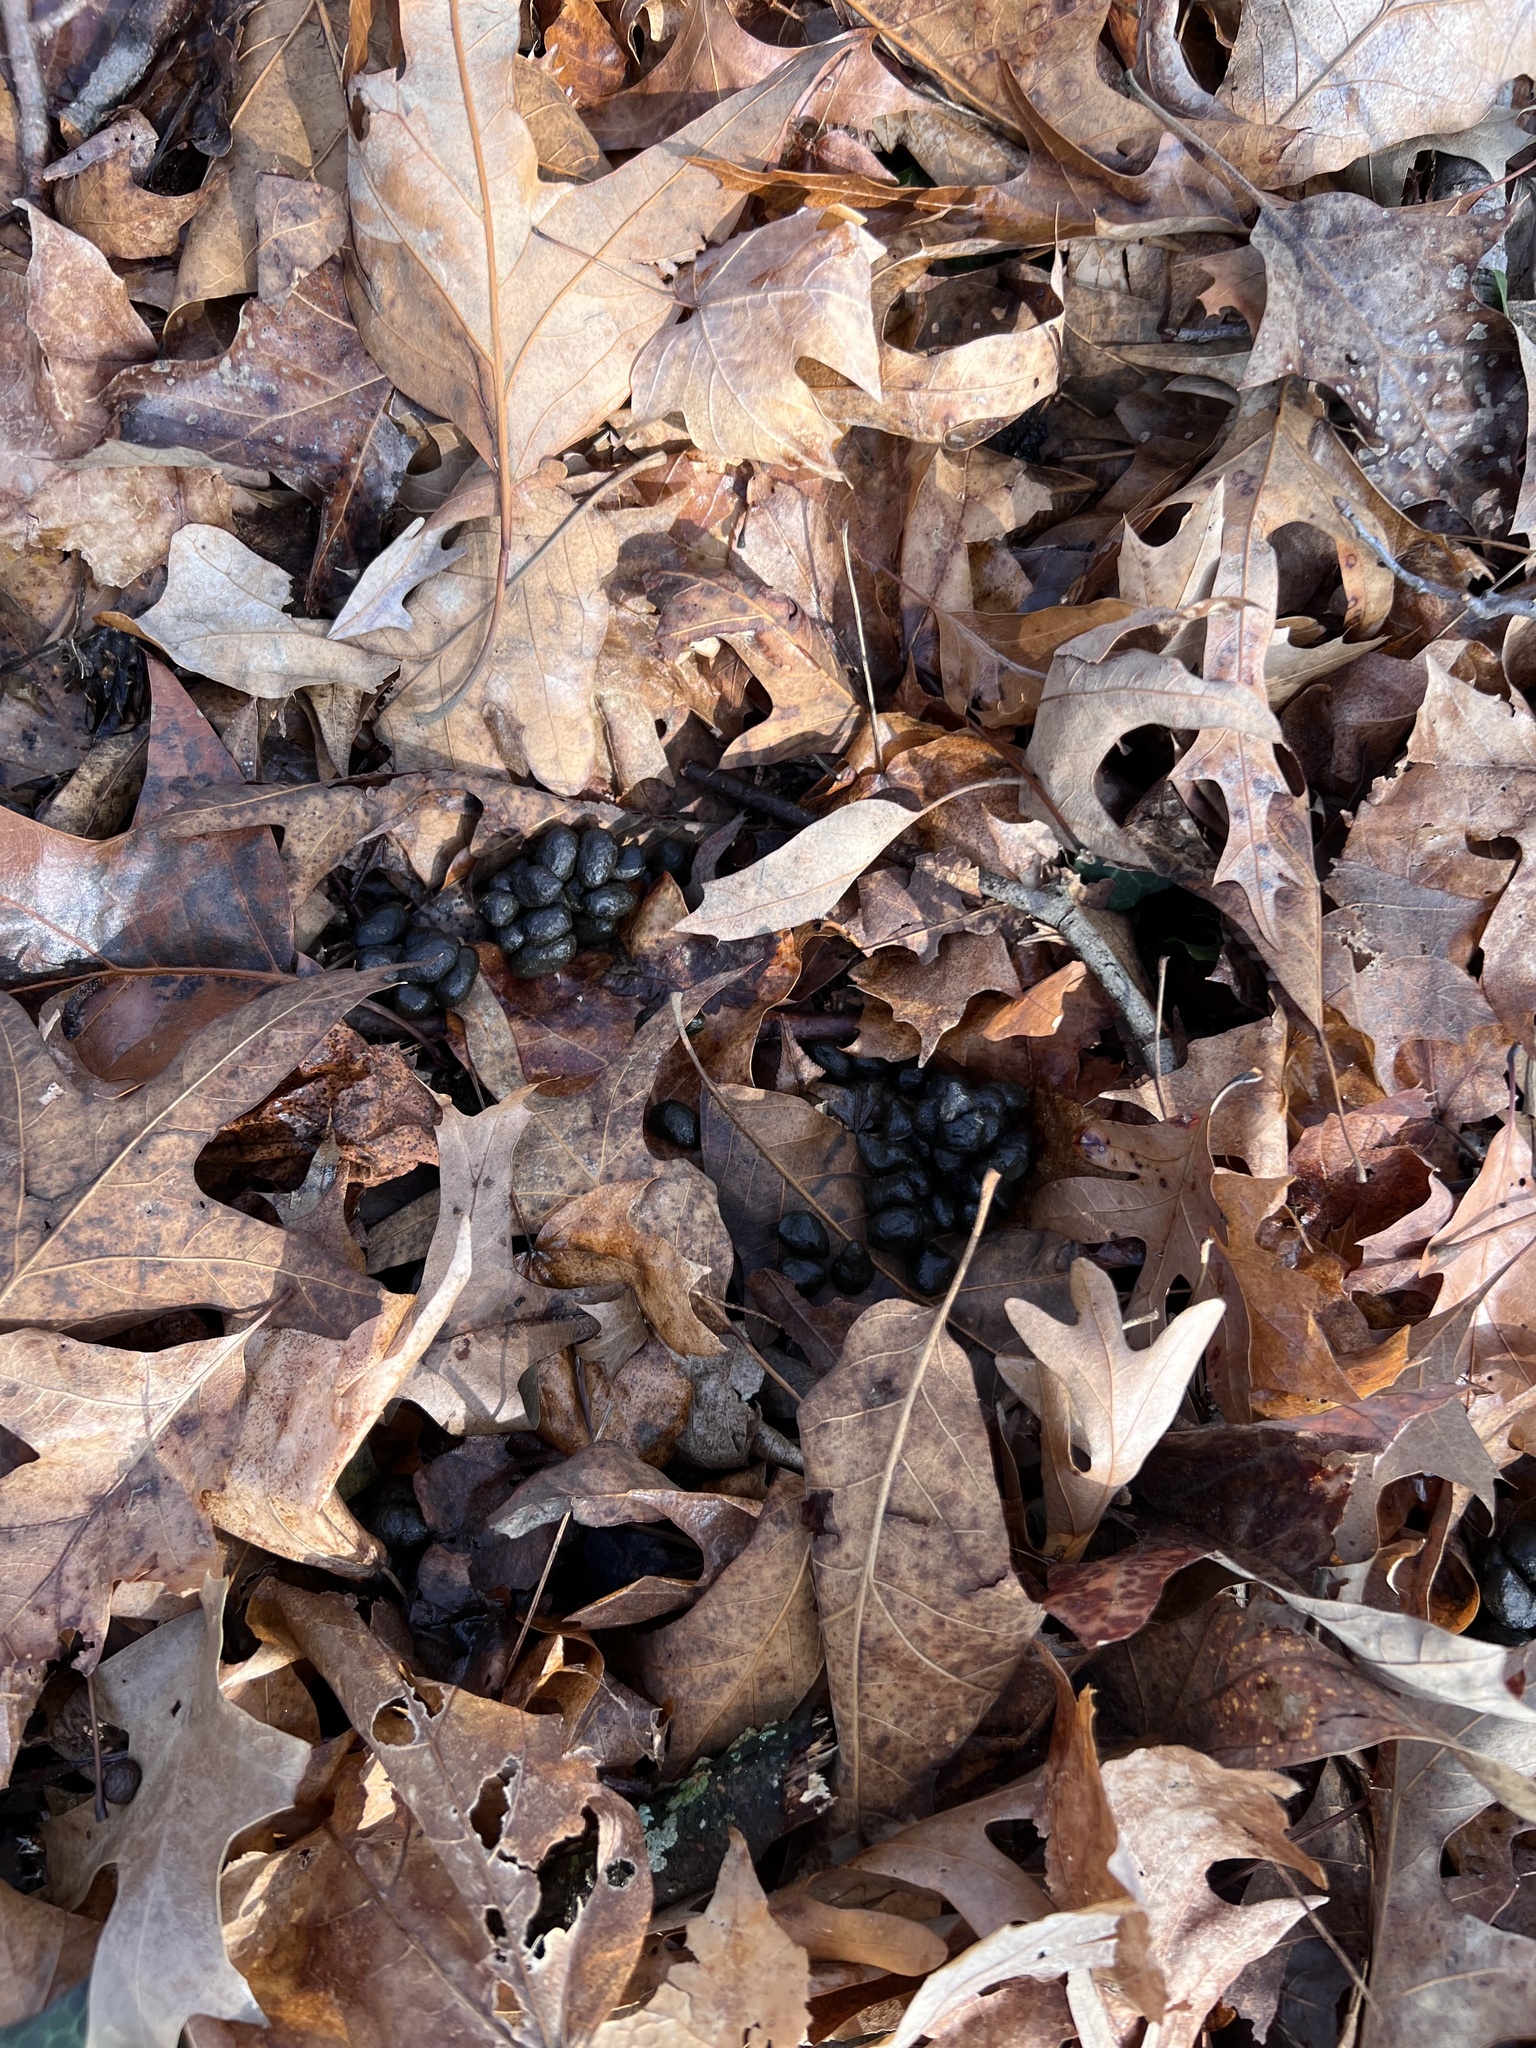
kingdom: Animalia
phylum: Chordata
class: Mammalia
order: Artiodactyla
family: Cervidae
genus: Odocoileus
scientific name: Odocoileus virginianus
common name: White-tailed deer
